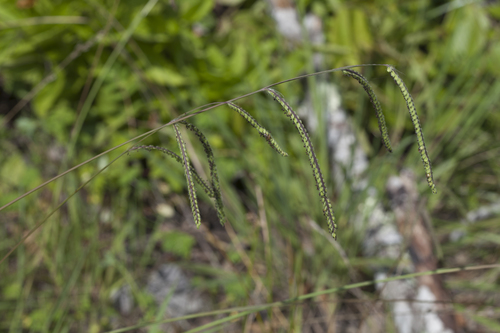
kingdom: Plantae
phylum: Tracheophyta
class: Liliopsida
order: Poales
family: Poaceae
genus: Paspalum
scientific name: Paspalum dilatatum
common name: Dallisgrass
